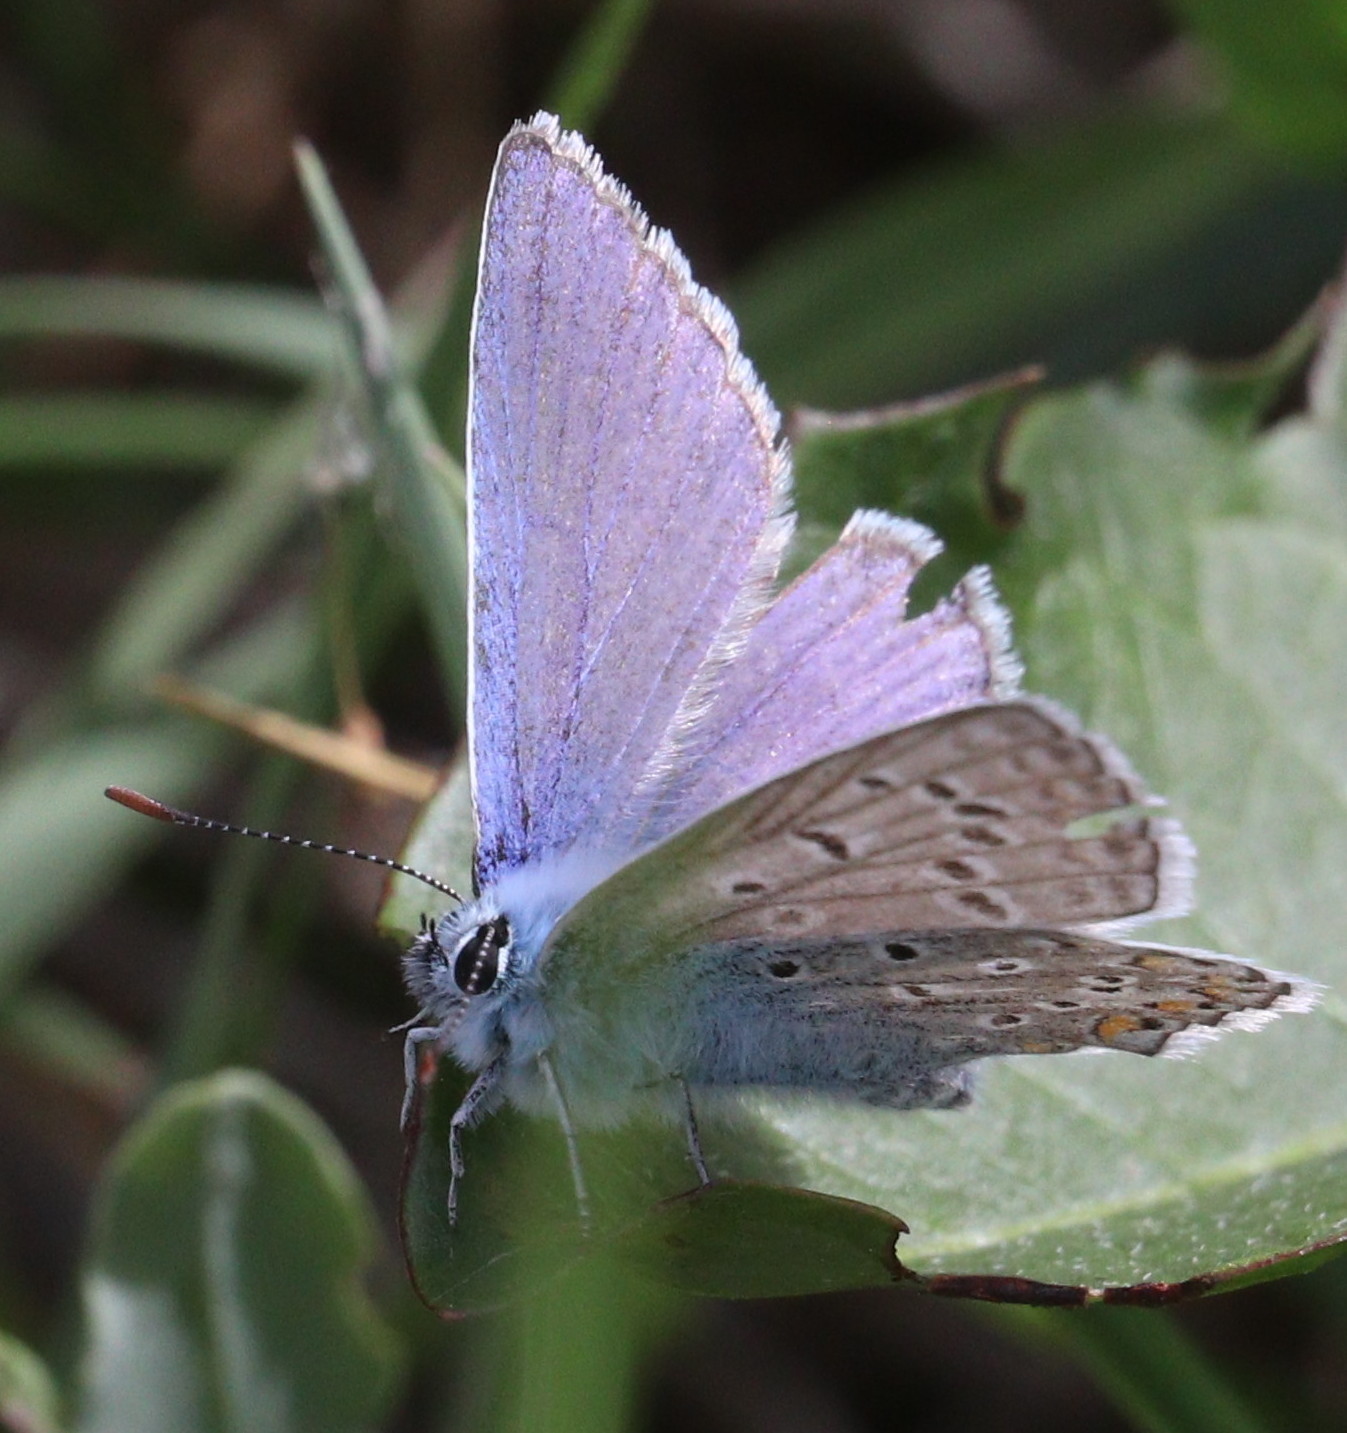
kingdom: Animalia
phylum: Arthropoda
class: Insecta
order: Lepidoptera
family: Lycaenidae
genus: Polyommatus
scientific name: Polyommatus icarus
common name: Common blue
